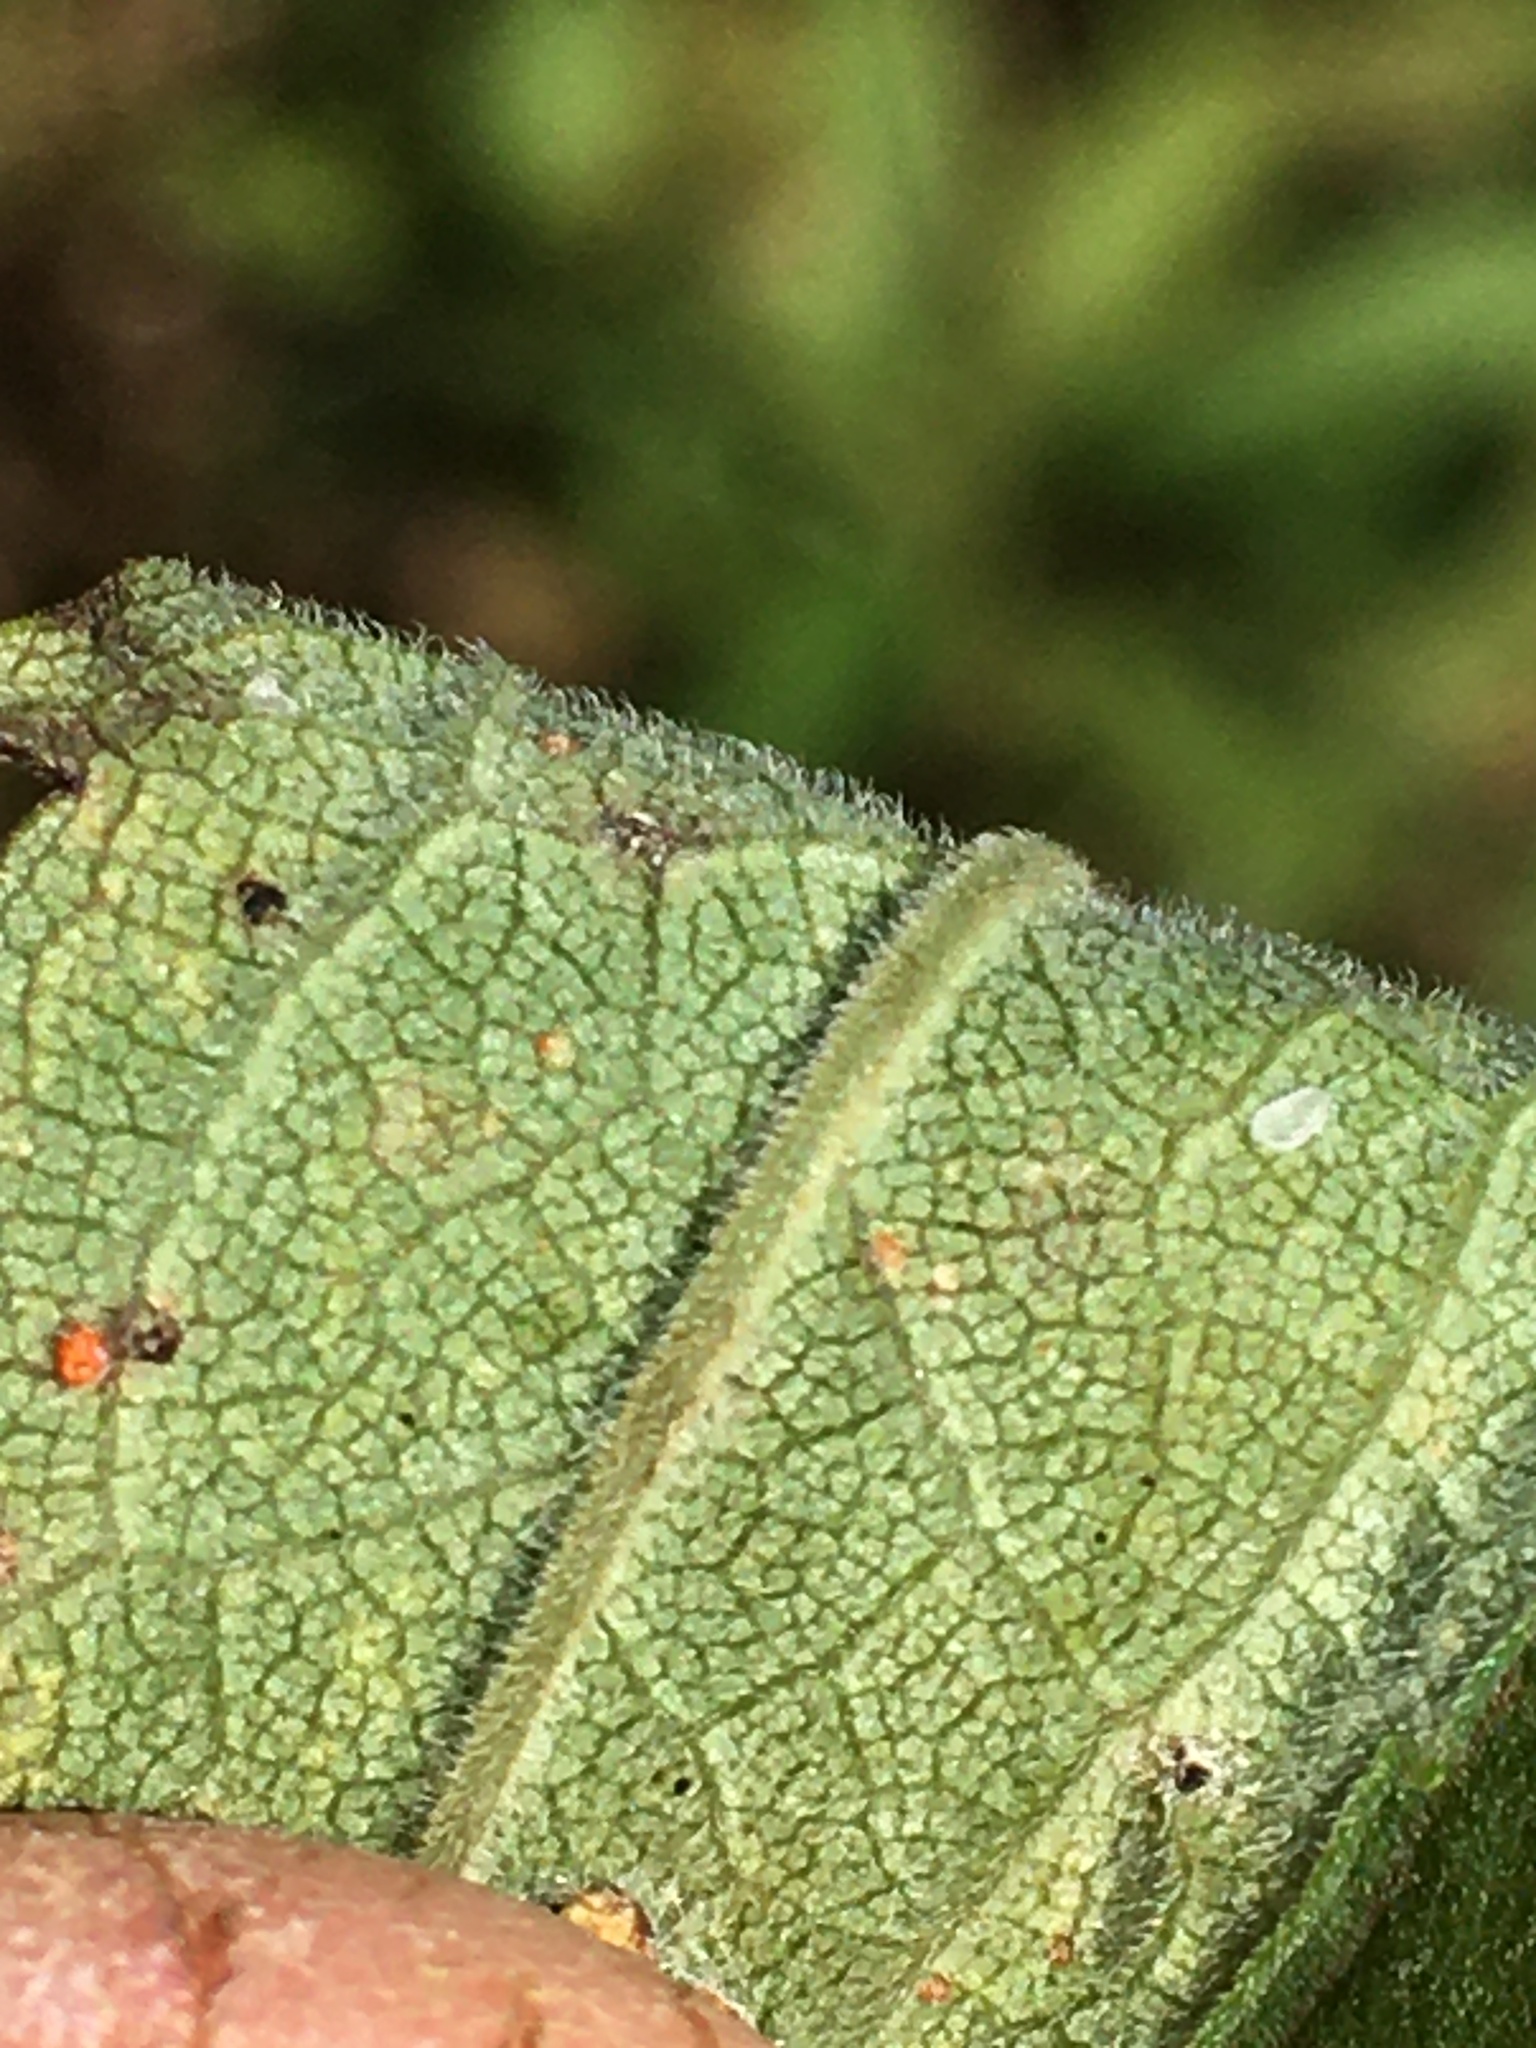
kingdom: Plantae
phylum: Tracheophyta
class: Magnoliopsida
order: Asterales
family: Asteraceae
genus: Solidago
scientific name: Solidago altissima
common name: Late goldenrod
